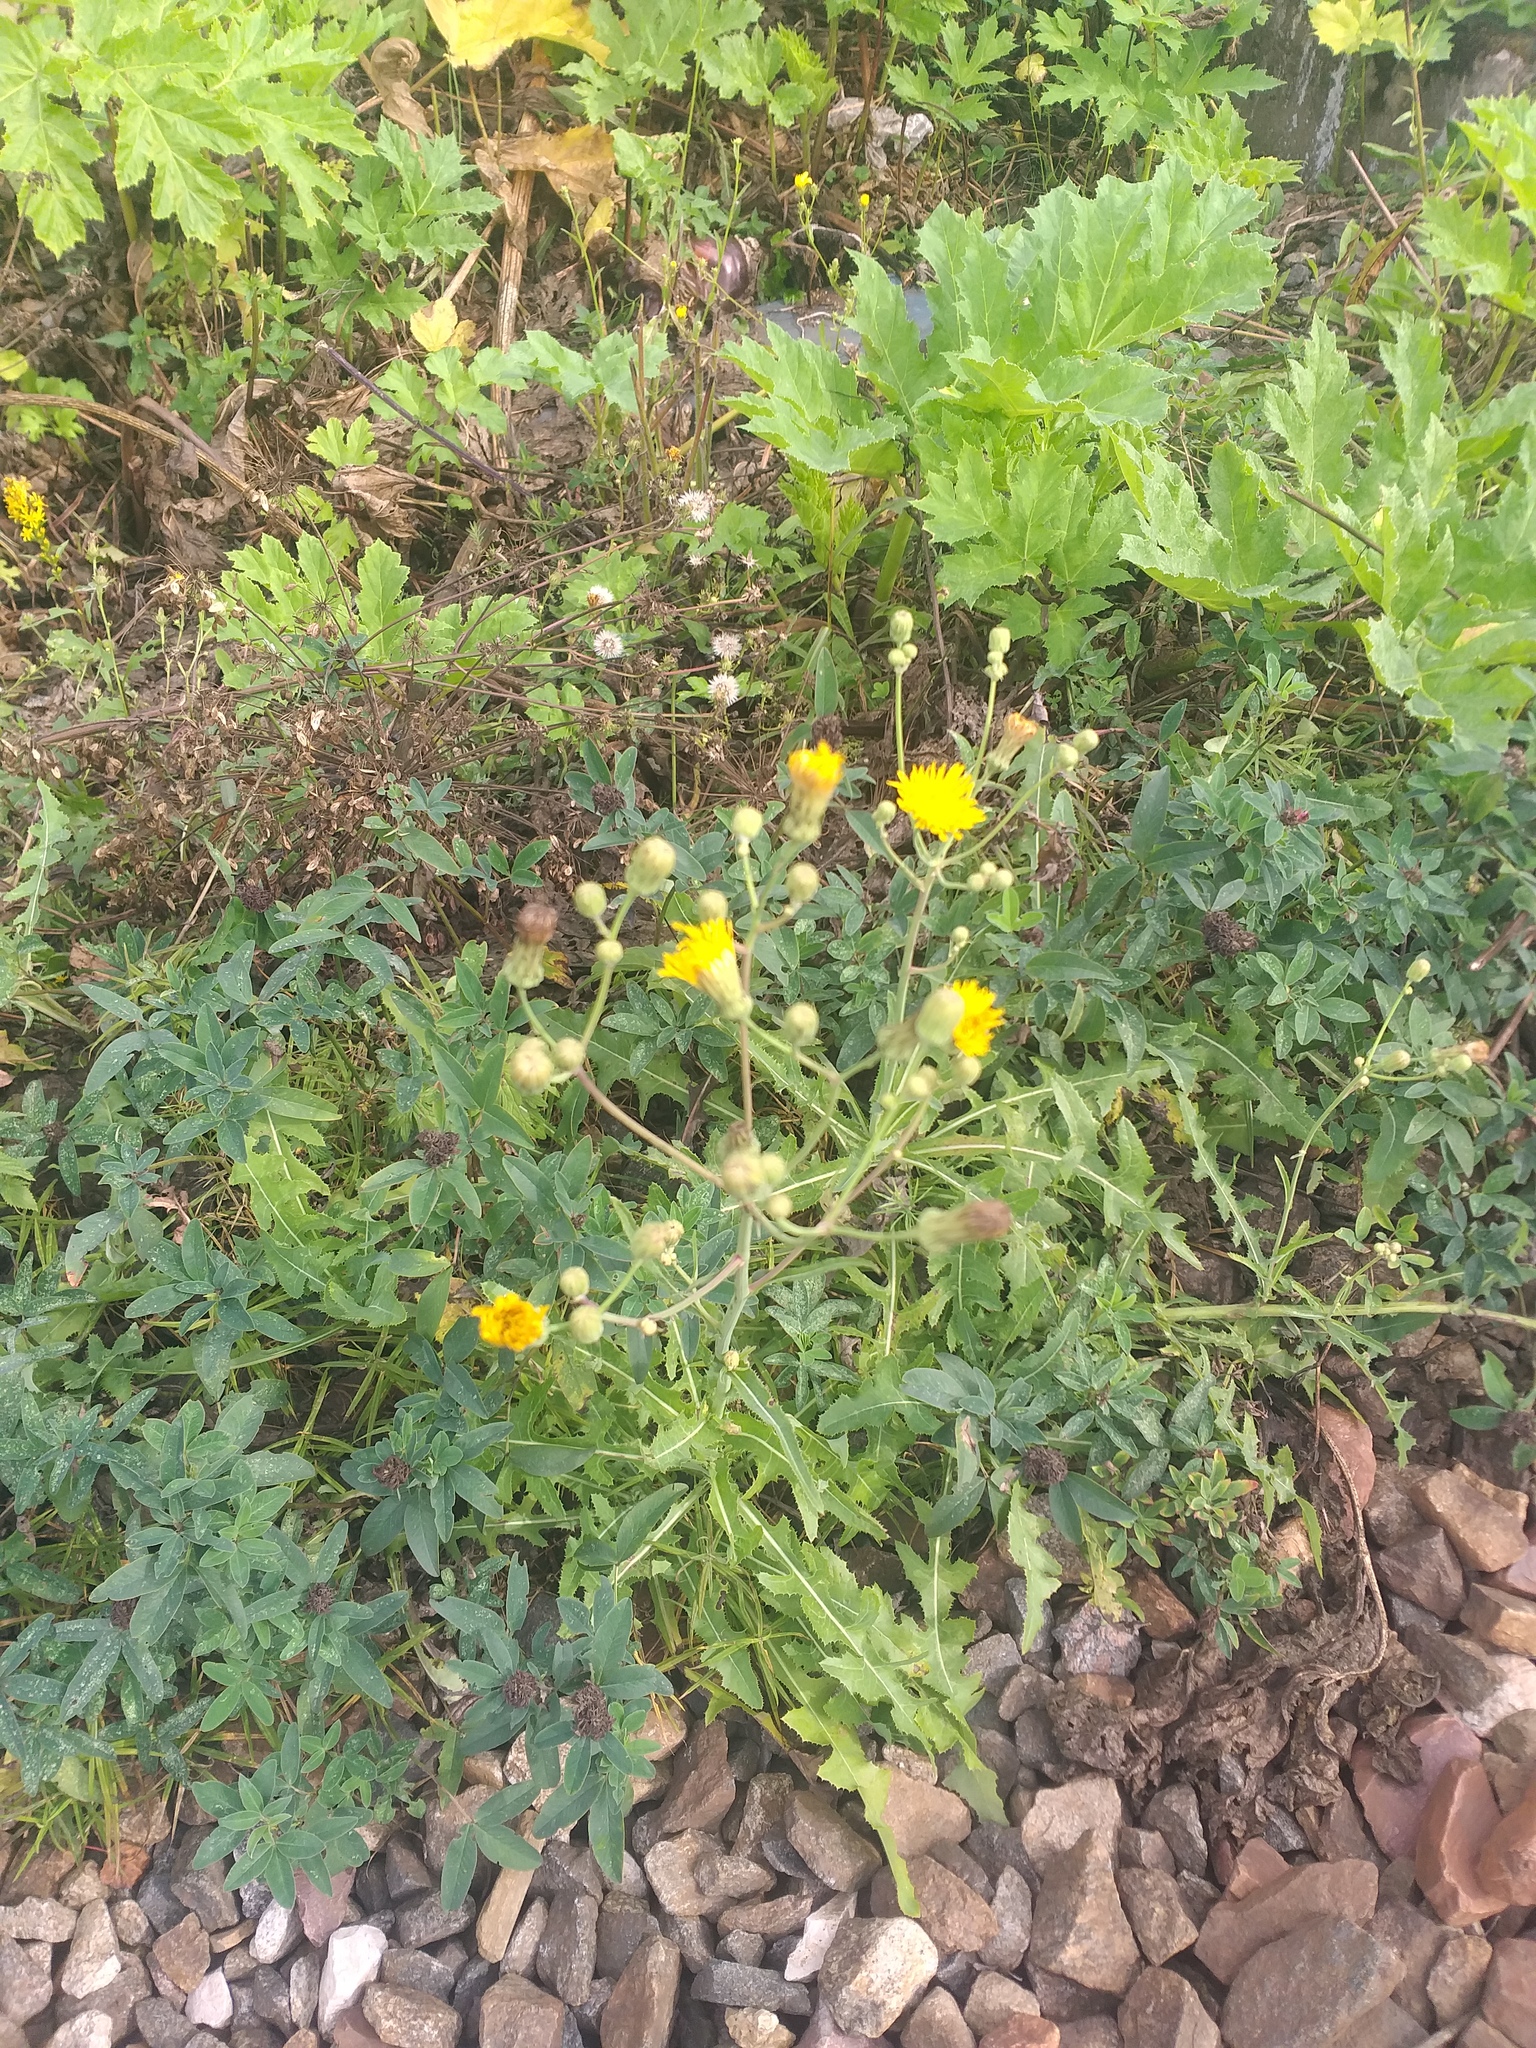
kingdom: Plantae
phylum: Tracheophyta
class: Magnoliopsida
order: Asterales
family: Asteraceae
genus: Sonchus
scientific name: Sonchus arvensis
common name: Perennial sow-thistle
